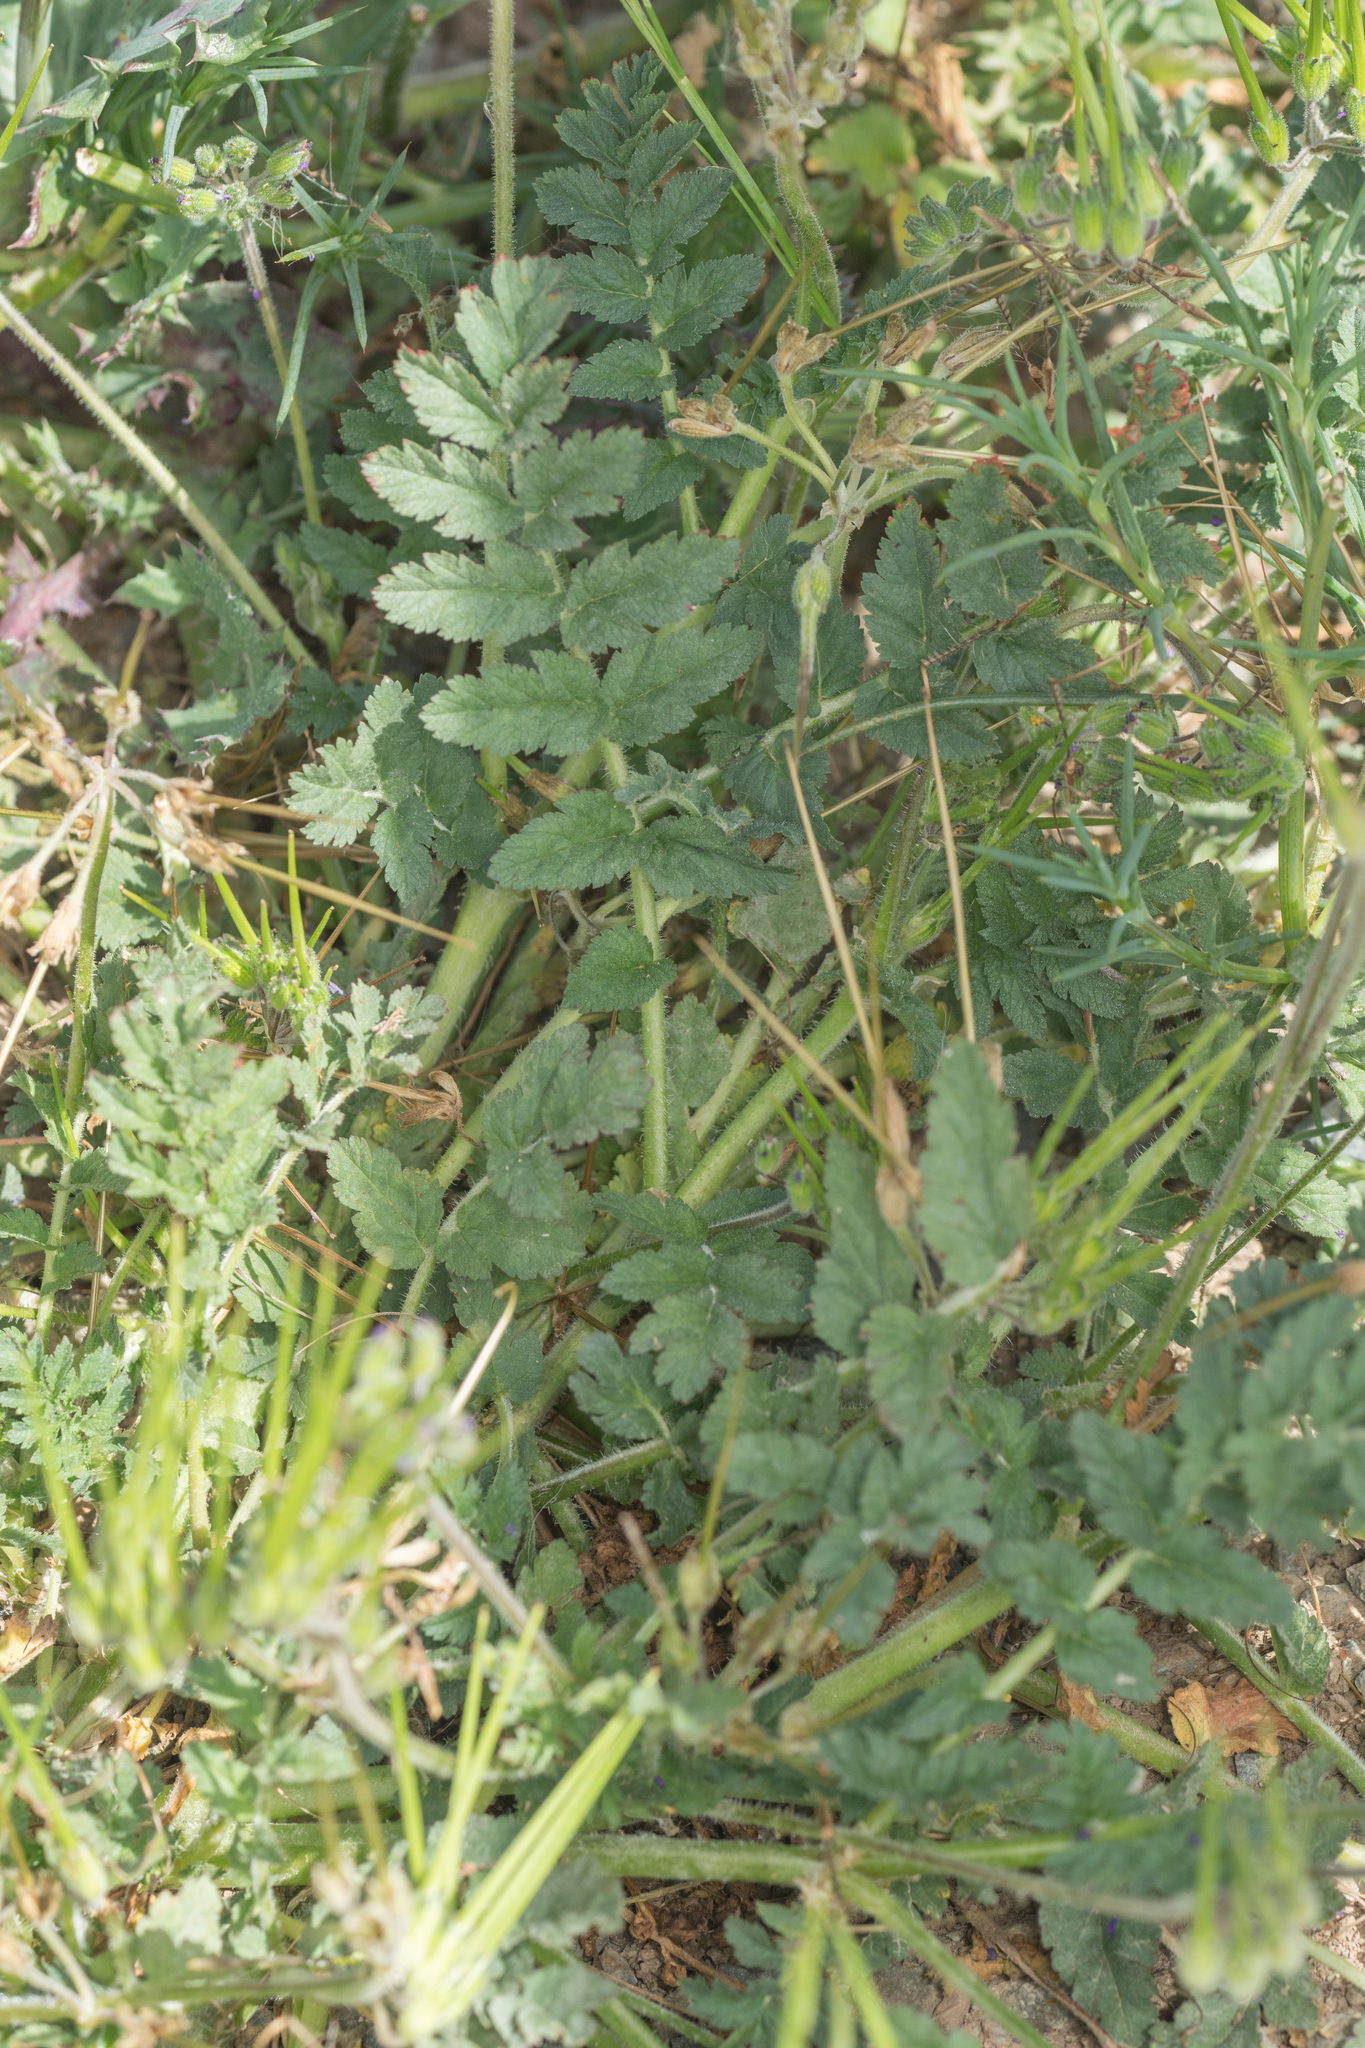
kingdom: Plantae
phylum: Tracheophyta
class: Magnoliopsida
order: Geraniales
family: Geraniaceae
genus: Erodium
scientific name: Erodium moschatum
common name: Musk stork's-bill
